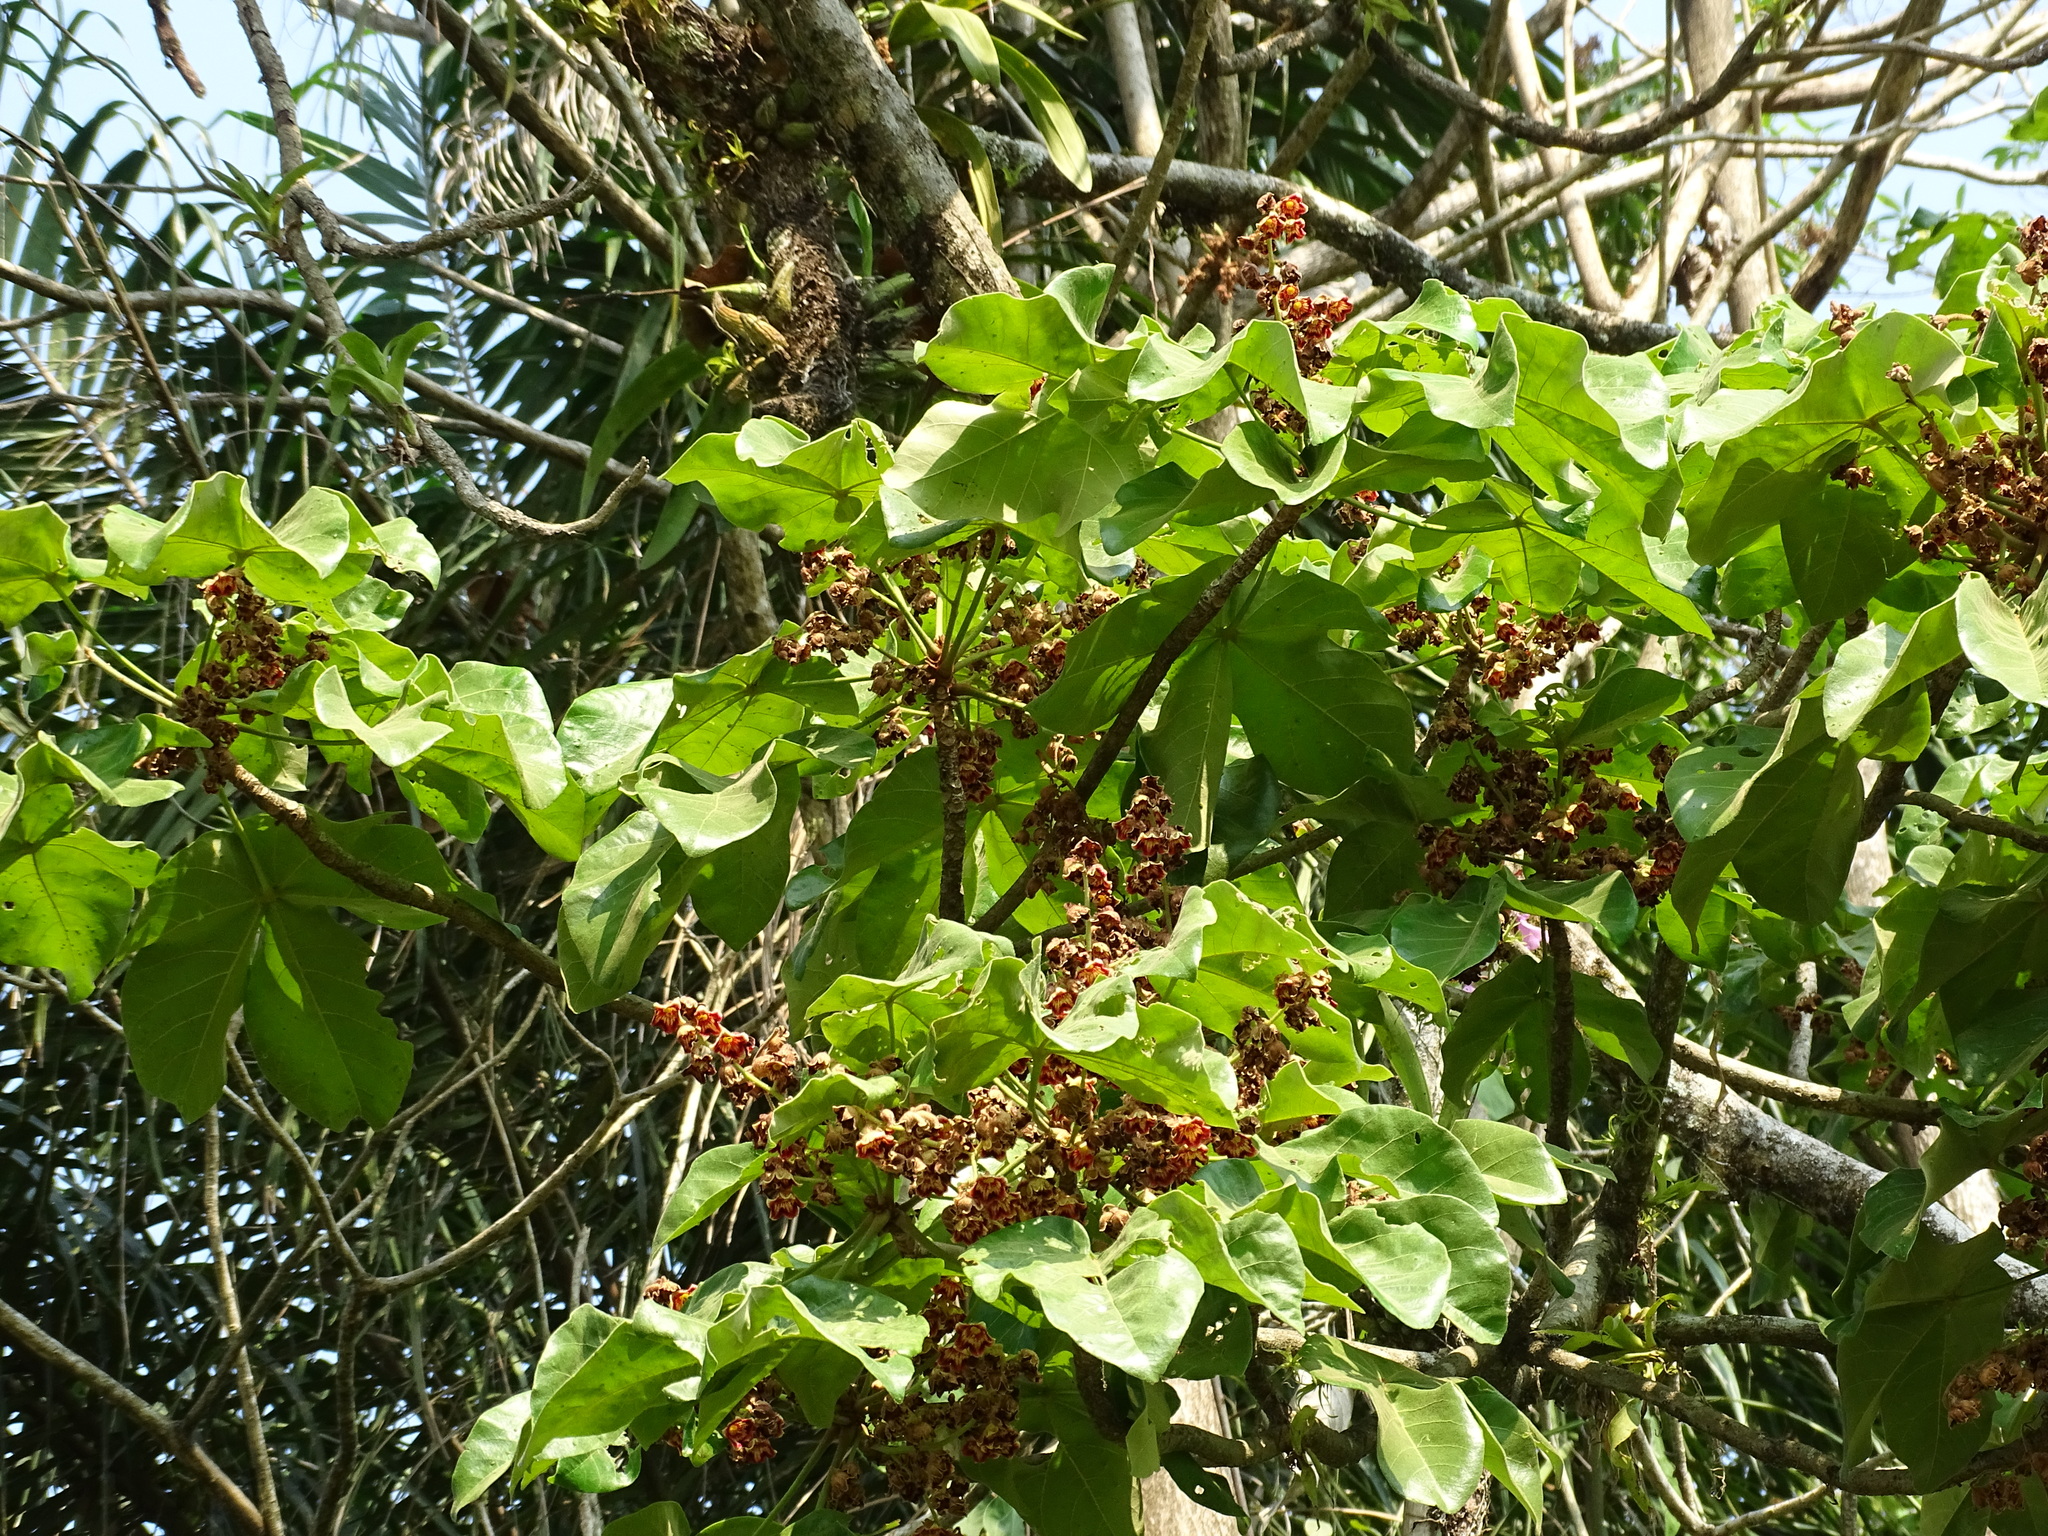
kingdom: Plantae
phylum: Tracheophyta
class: Magnoliopsida
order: Malvales
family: Malvaceae
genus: Sterculia
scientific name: Sterculia apetala
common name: Panama tree
